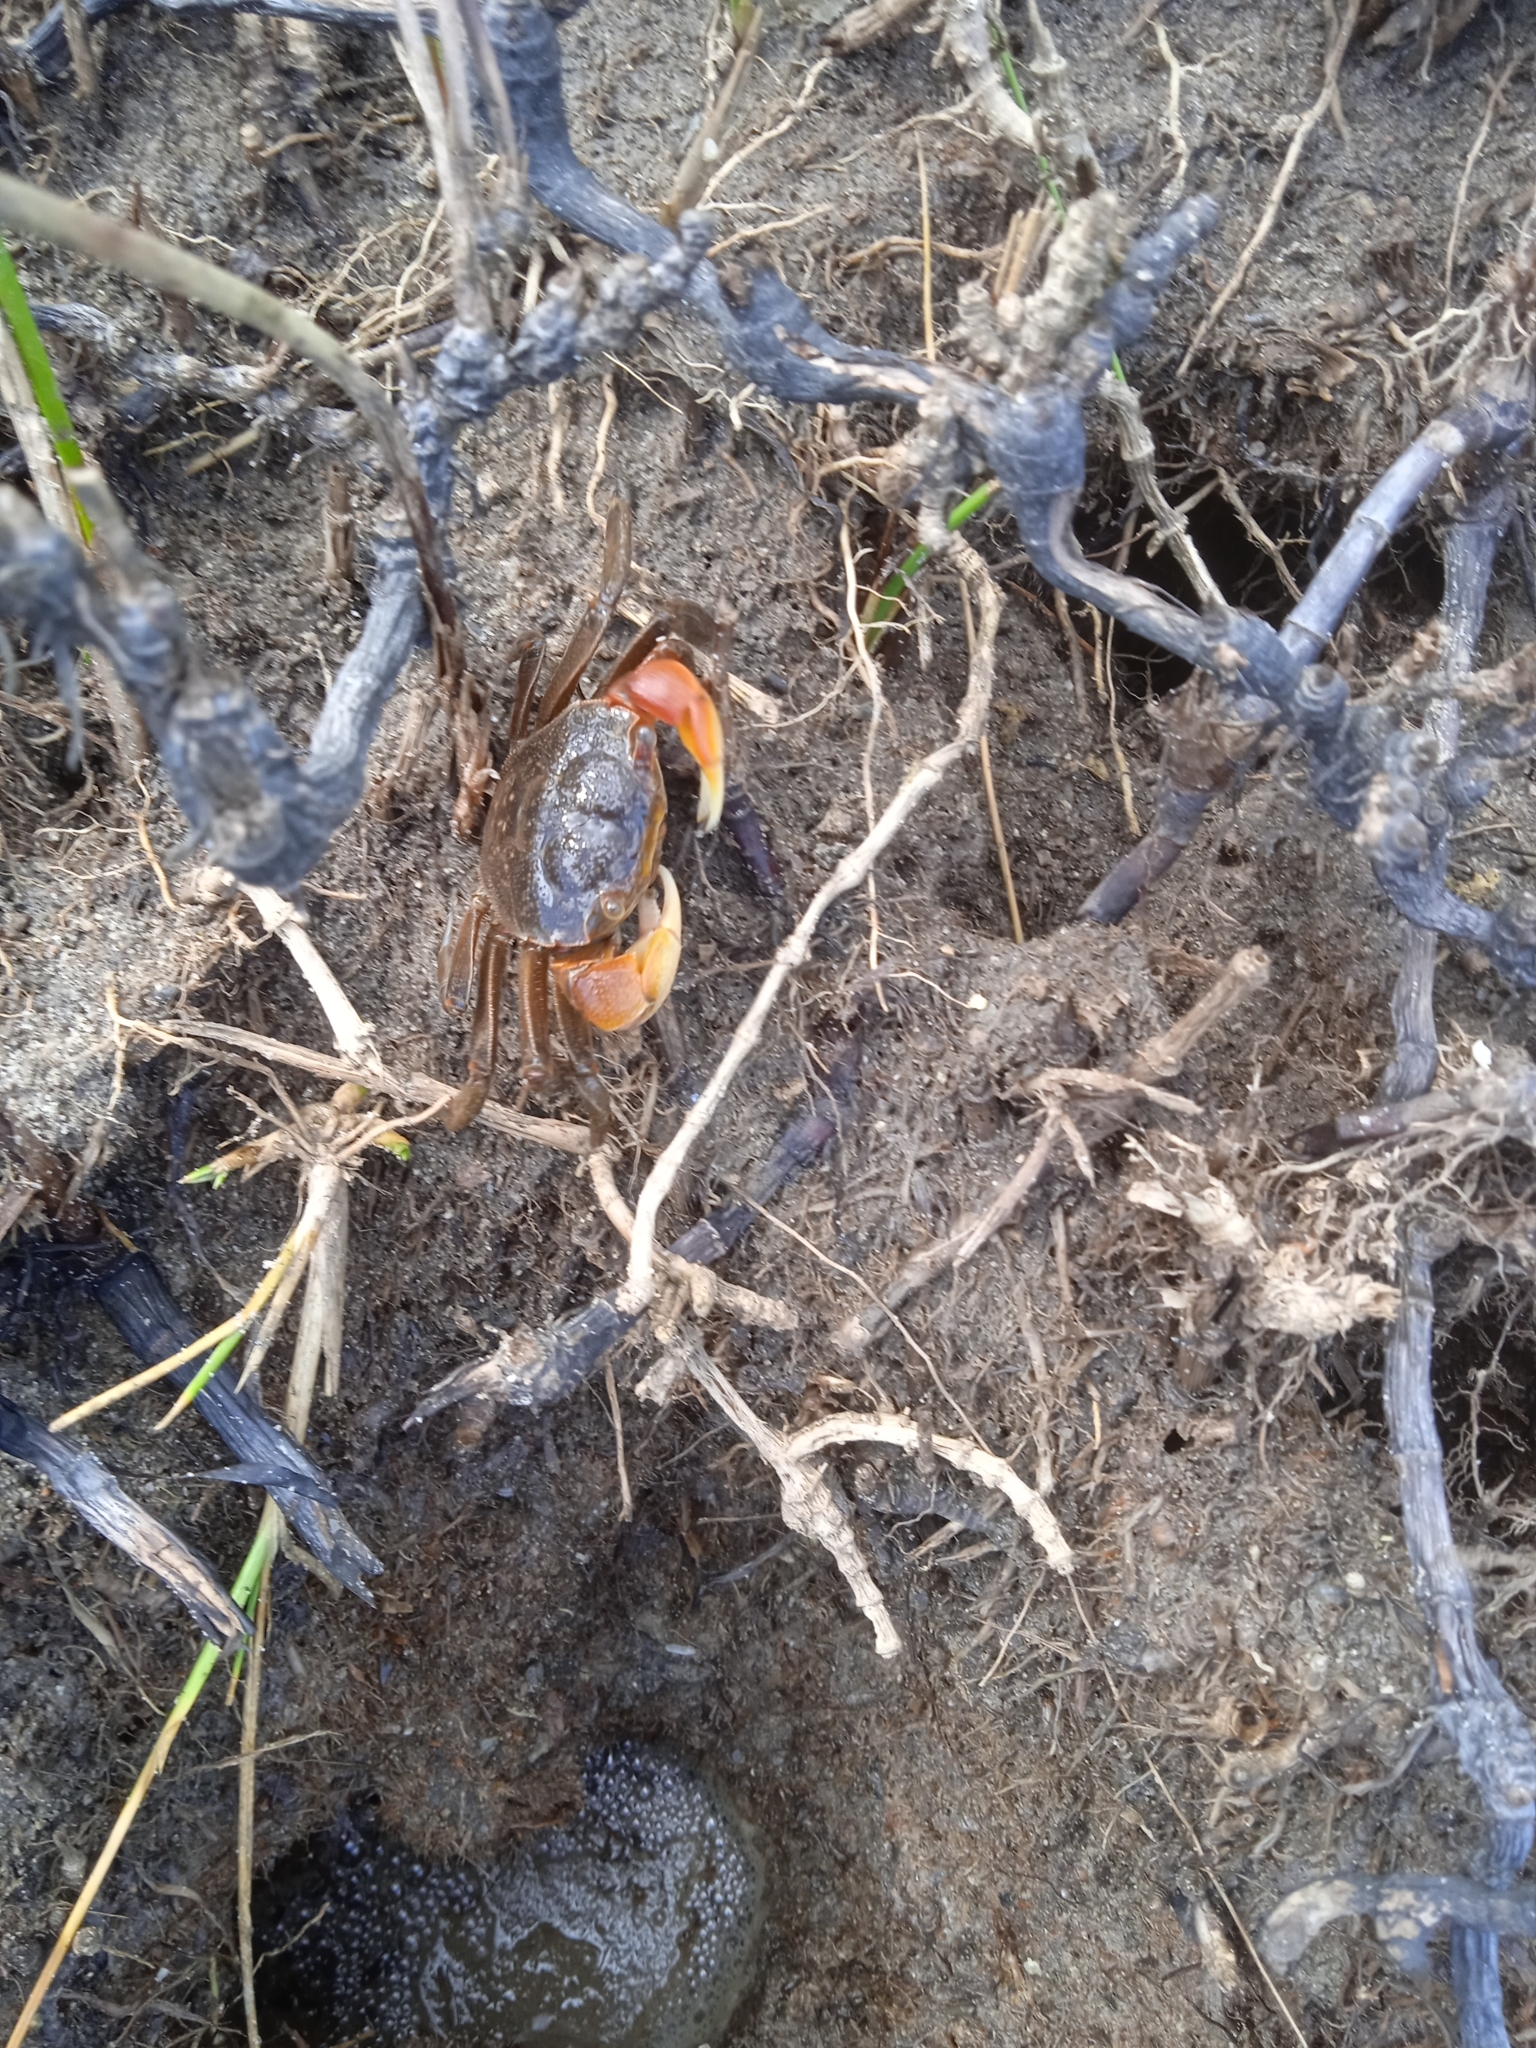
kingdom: Animalia
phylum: Arthropoda
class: Malacostraca
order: Decapoda
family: Varunidae
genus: Neohelice
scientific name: Neohelice granulata
